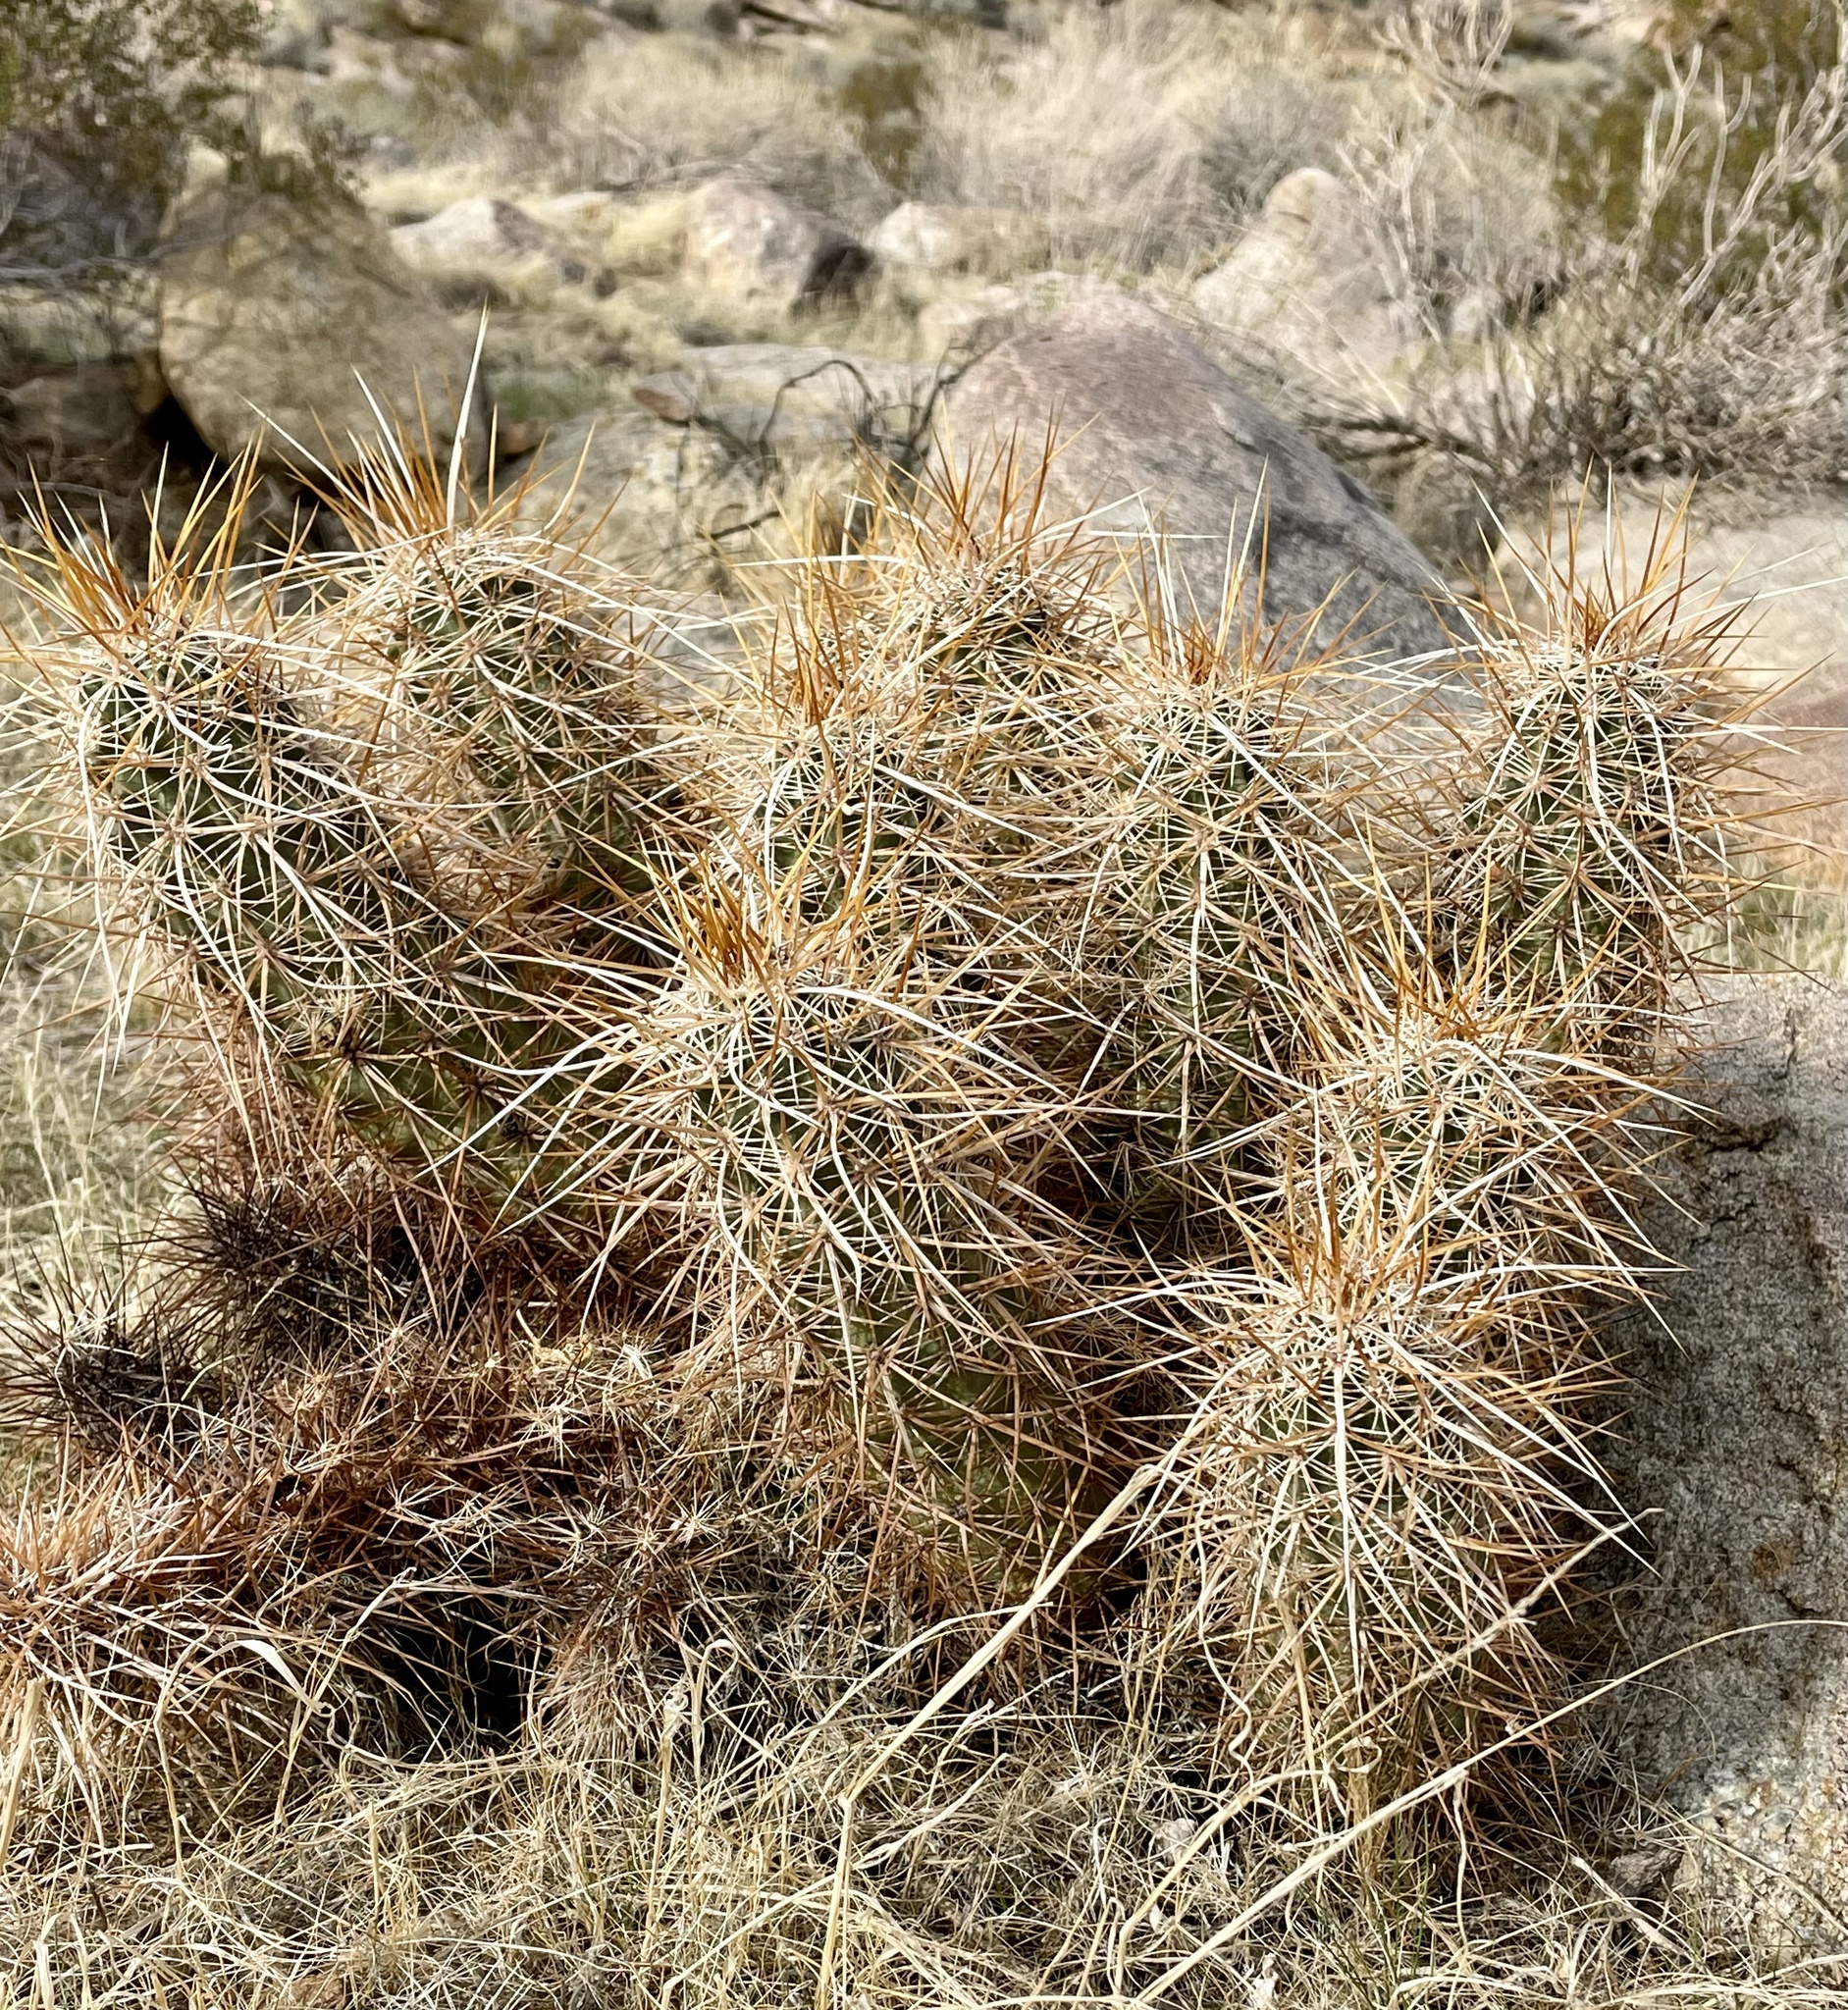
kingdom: Plantae
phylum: Tracheophyta
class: Magnoliopsida
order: Caryophyllales
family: Cactaceae
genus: Echinocereus
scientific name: Echinocereus engelmannii
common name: Engelmann's hedgehog cactus
